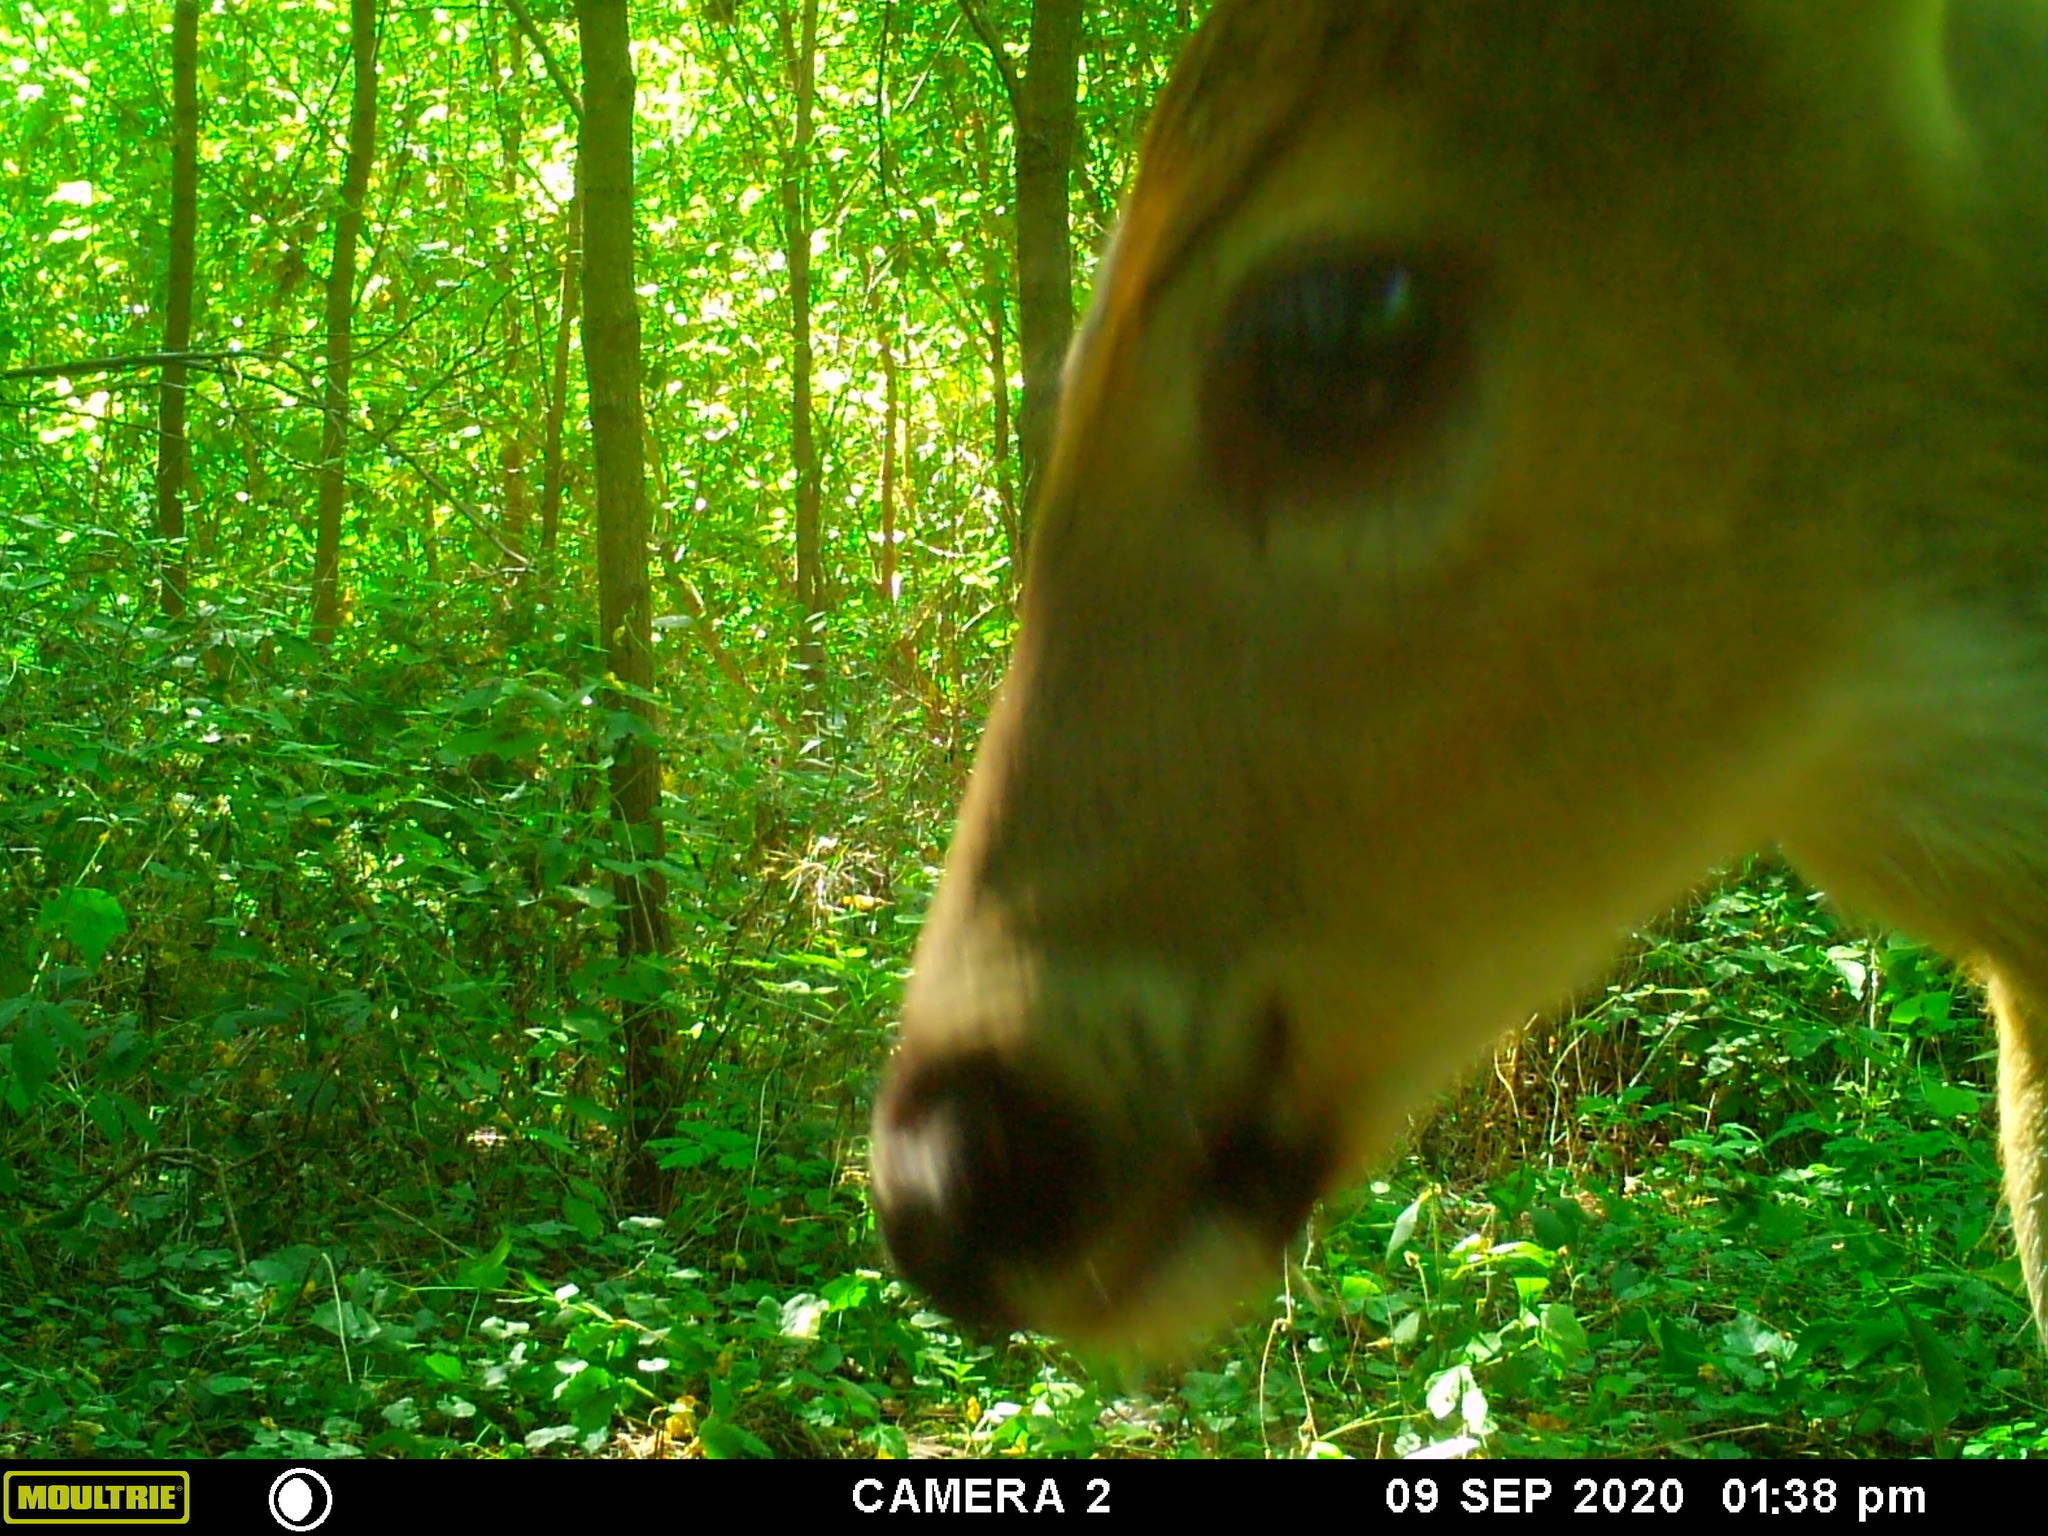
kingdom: Animalia
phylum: Chordata
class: Mammalia
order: Artiodactyla
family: Cervidae
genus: Odocoileus
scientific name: Odocoileus virginianus
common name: White-tailed deer
